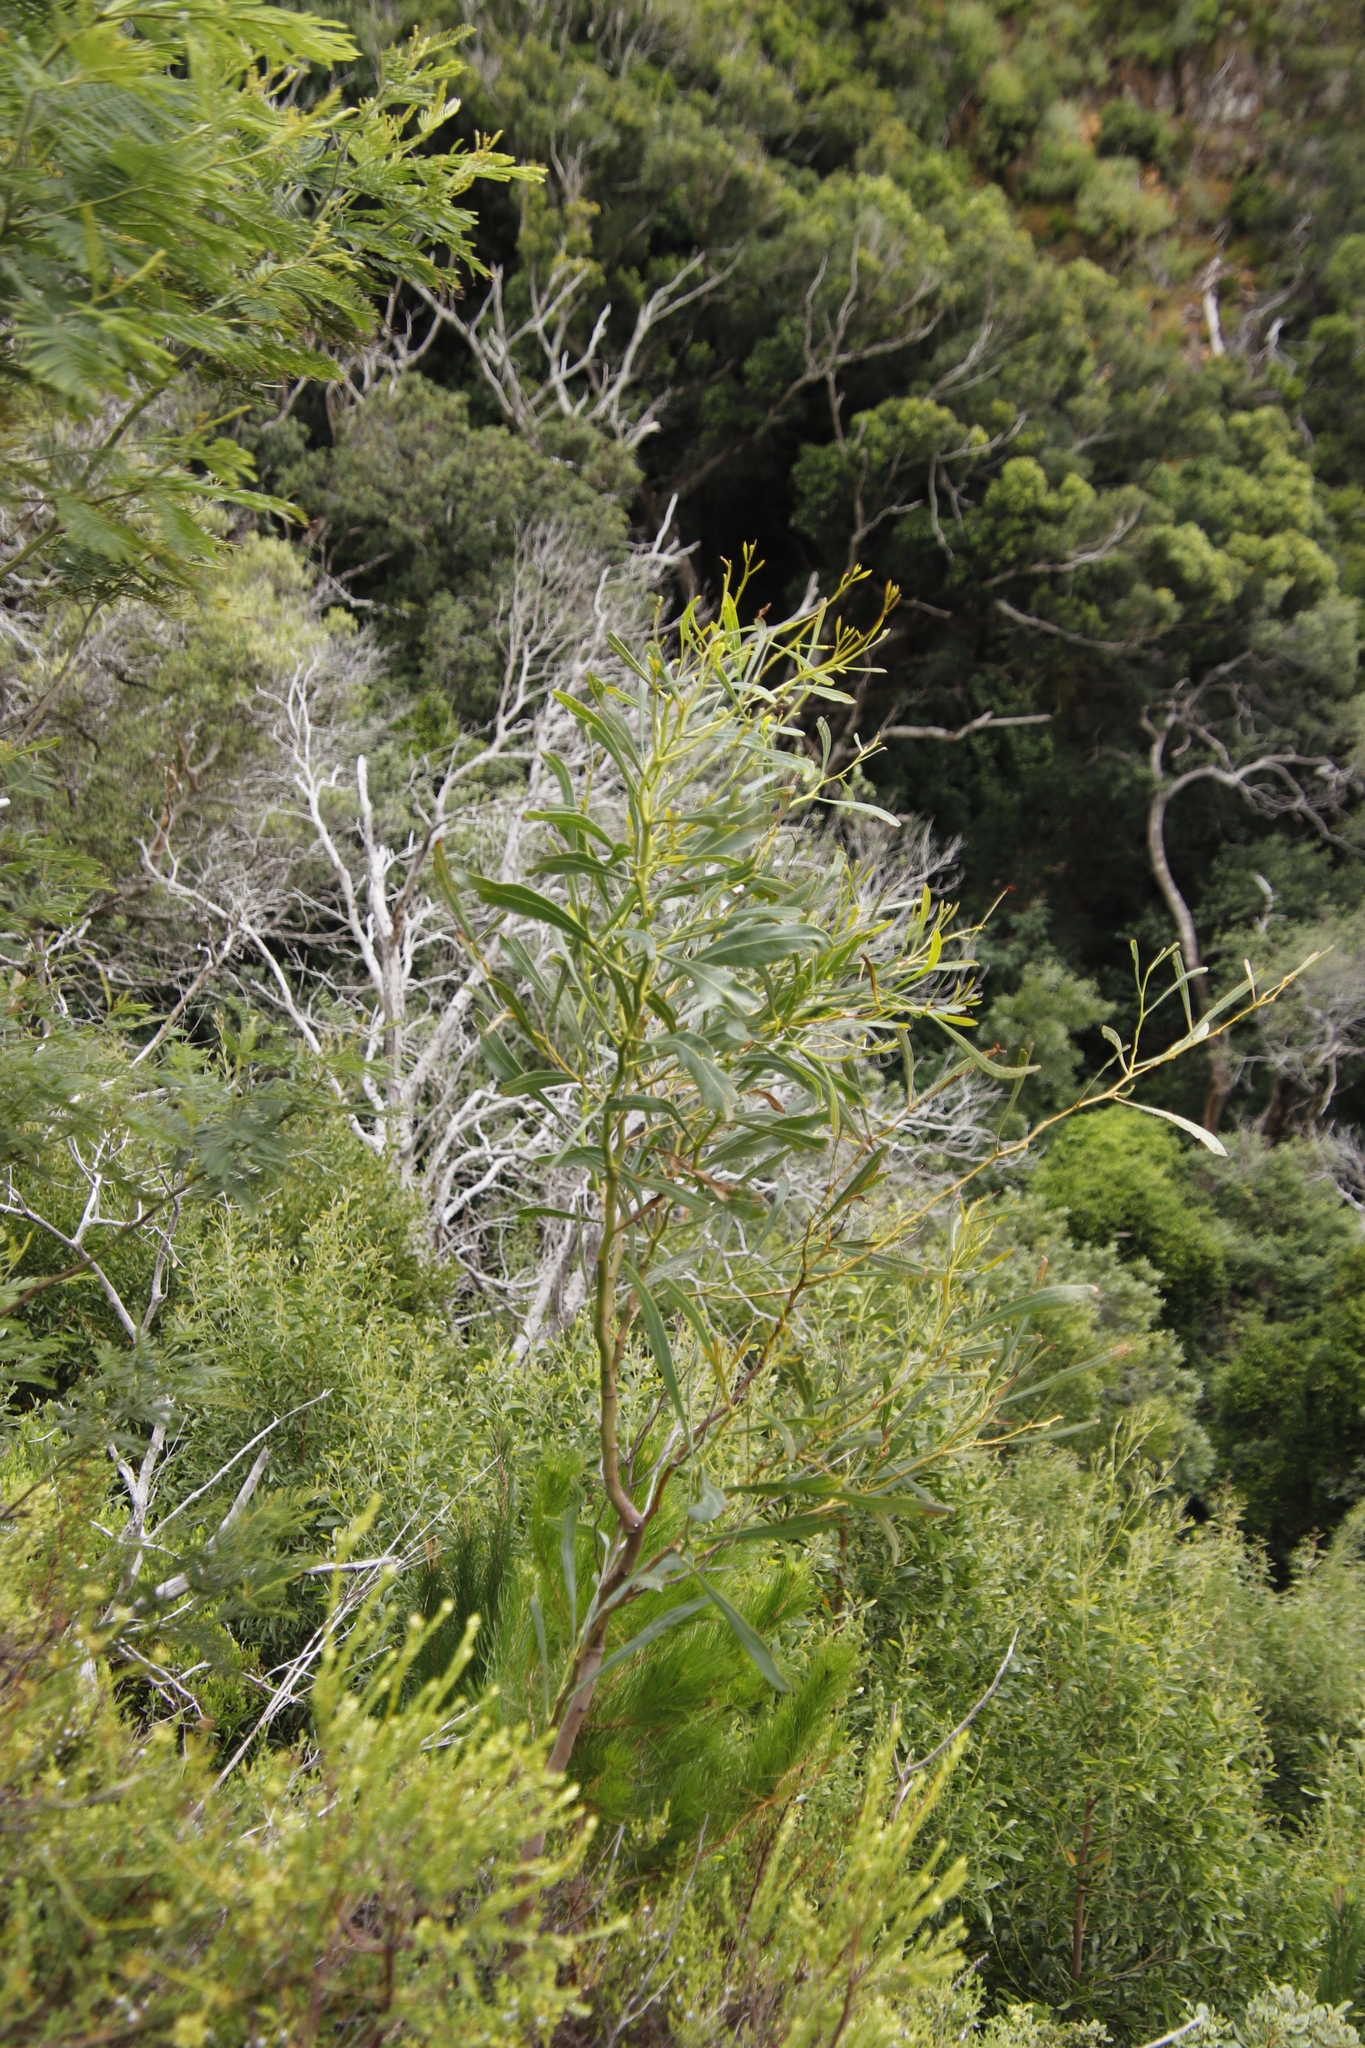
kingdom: Plantae
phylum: Tracheophyta
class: Magnoliopsida
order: Fabales
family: Fabaceae
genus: Acacia
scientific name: Acacia saligna
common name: Orange wattle
